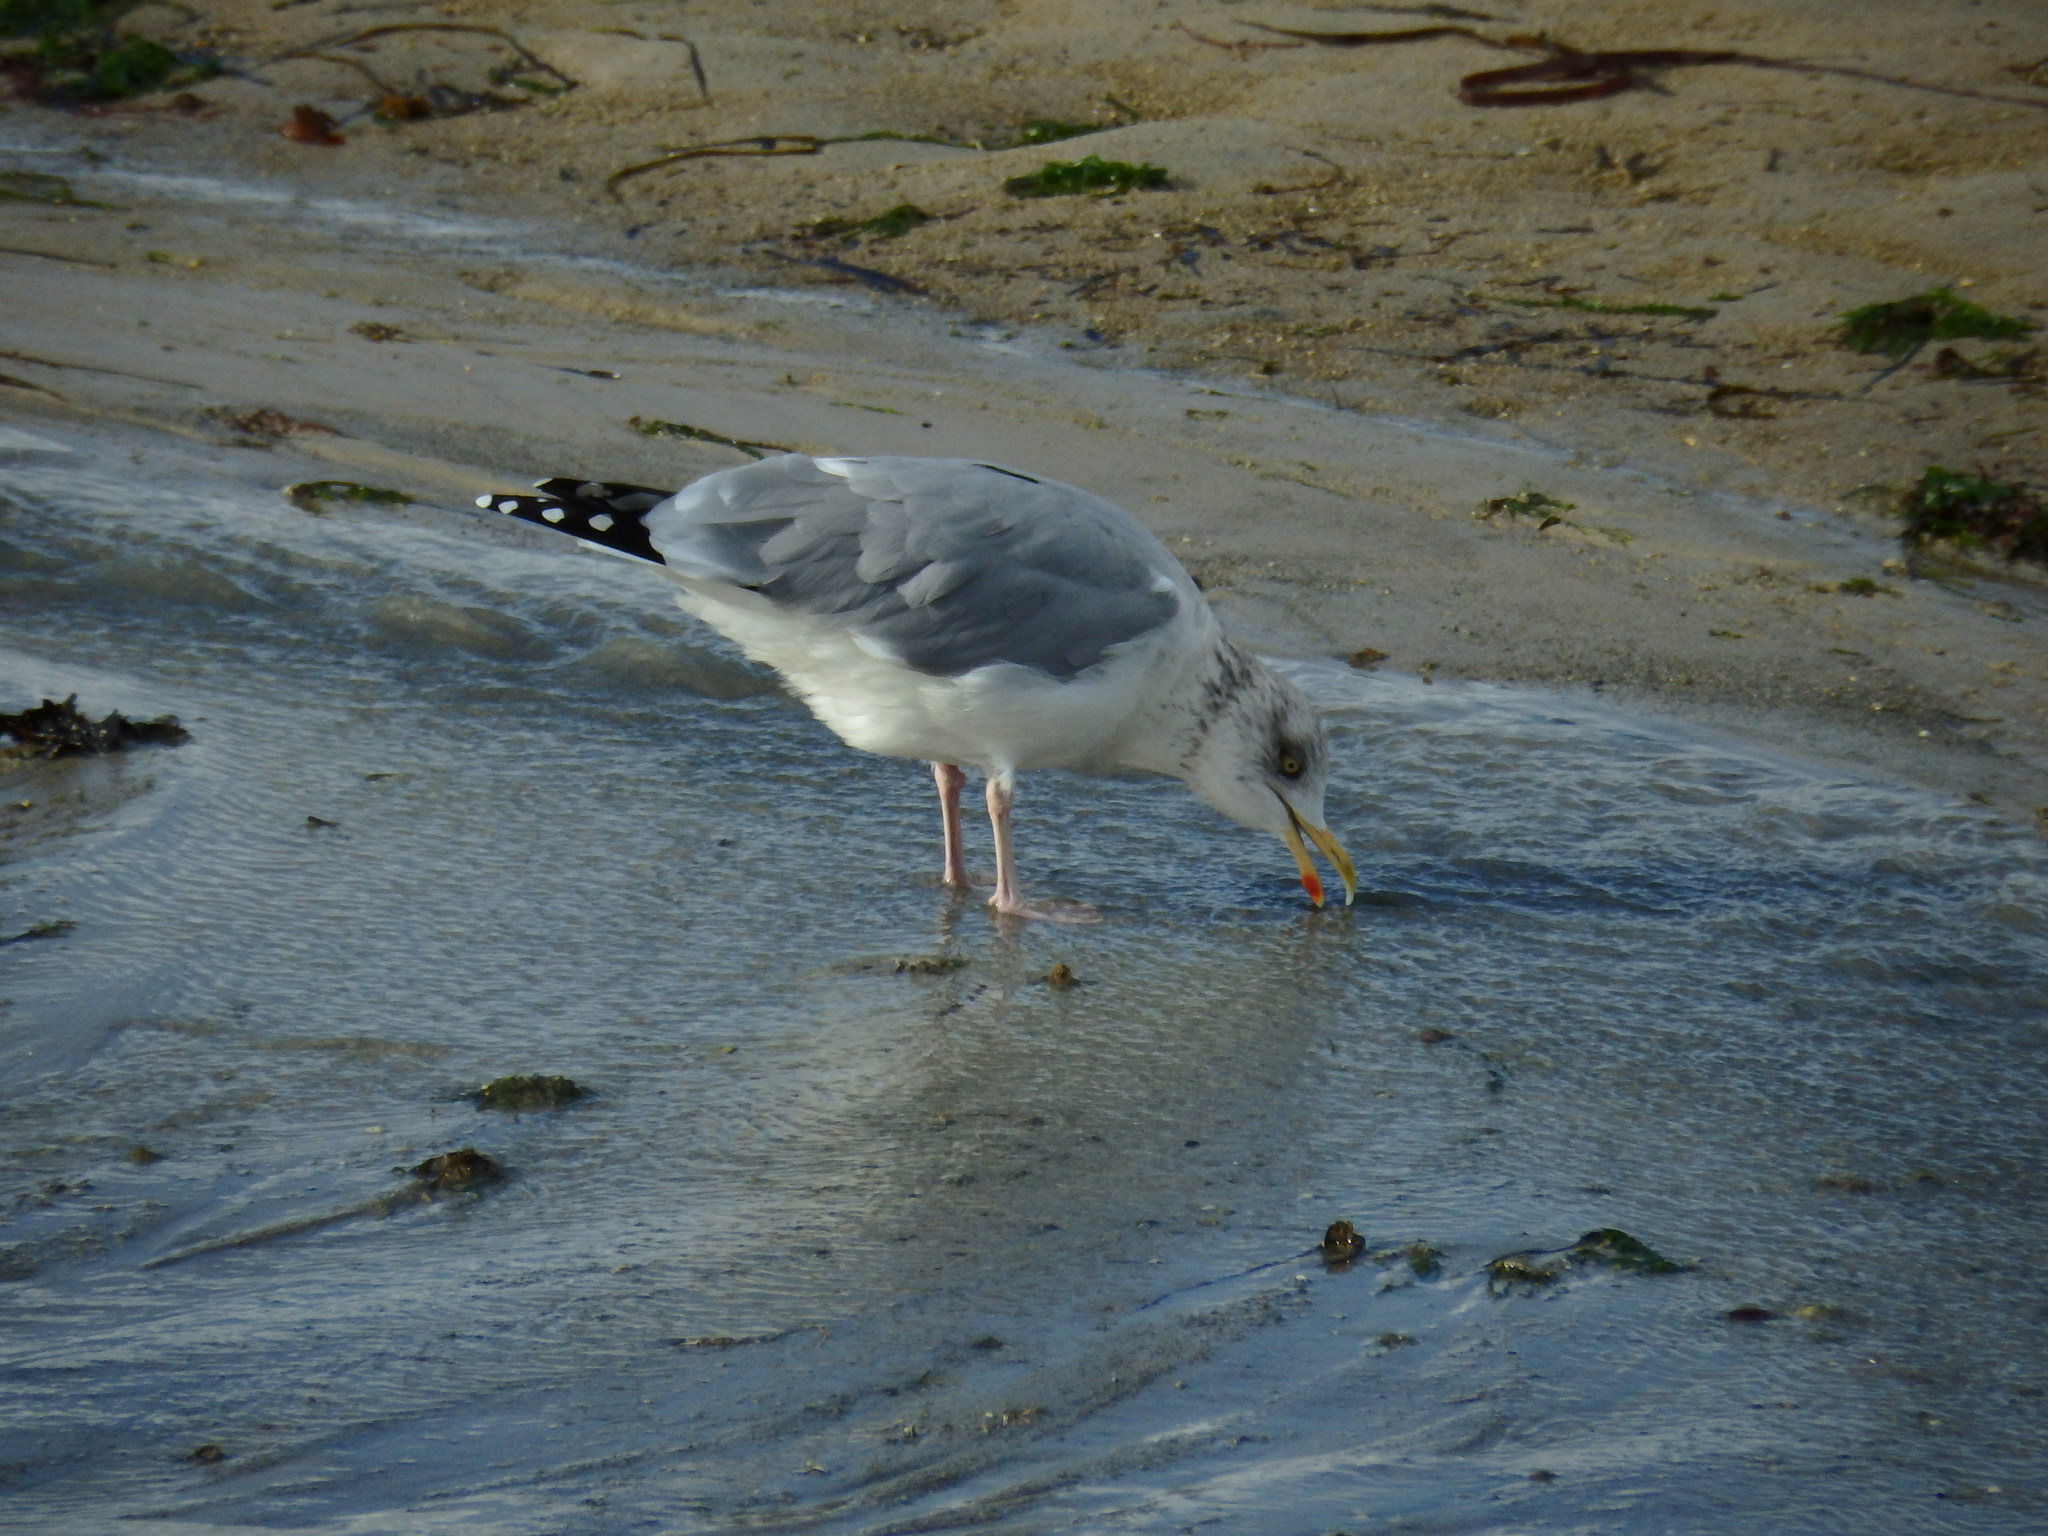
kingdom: Animalia
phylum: Chordata
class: Aves
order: Charadriiformes
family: Laridae
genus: Larus
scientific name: Larus argentatus
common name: Herring gull
